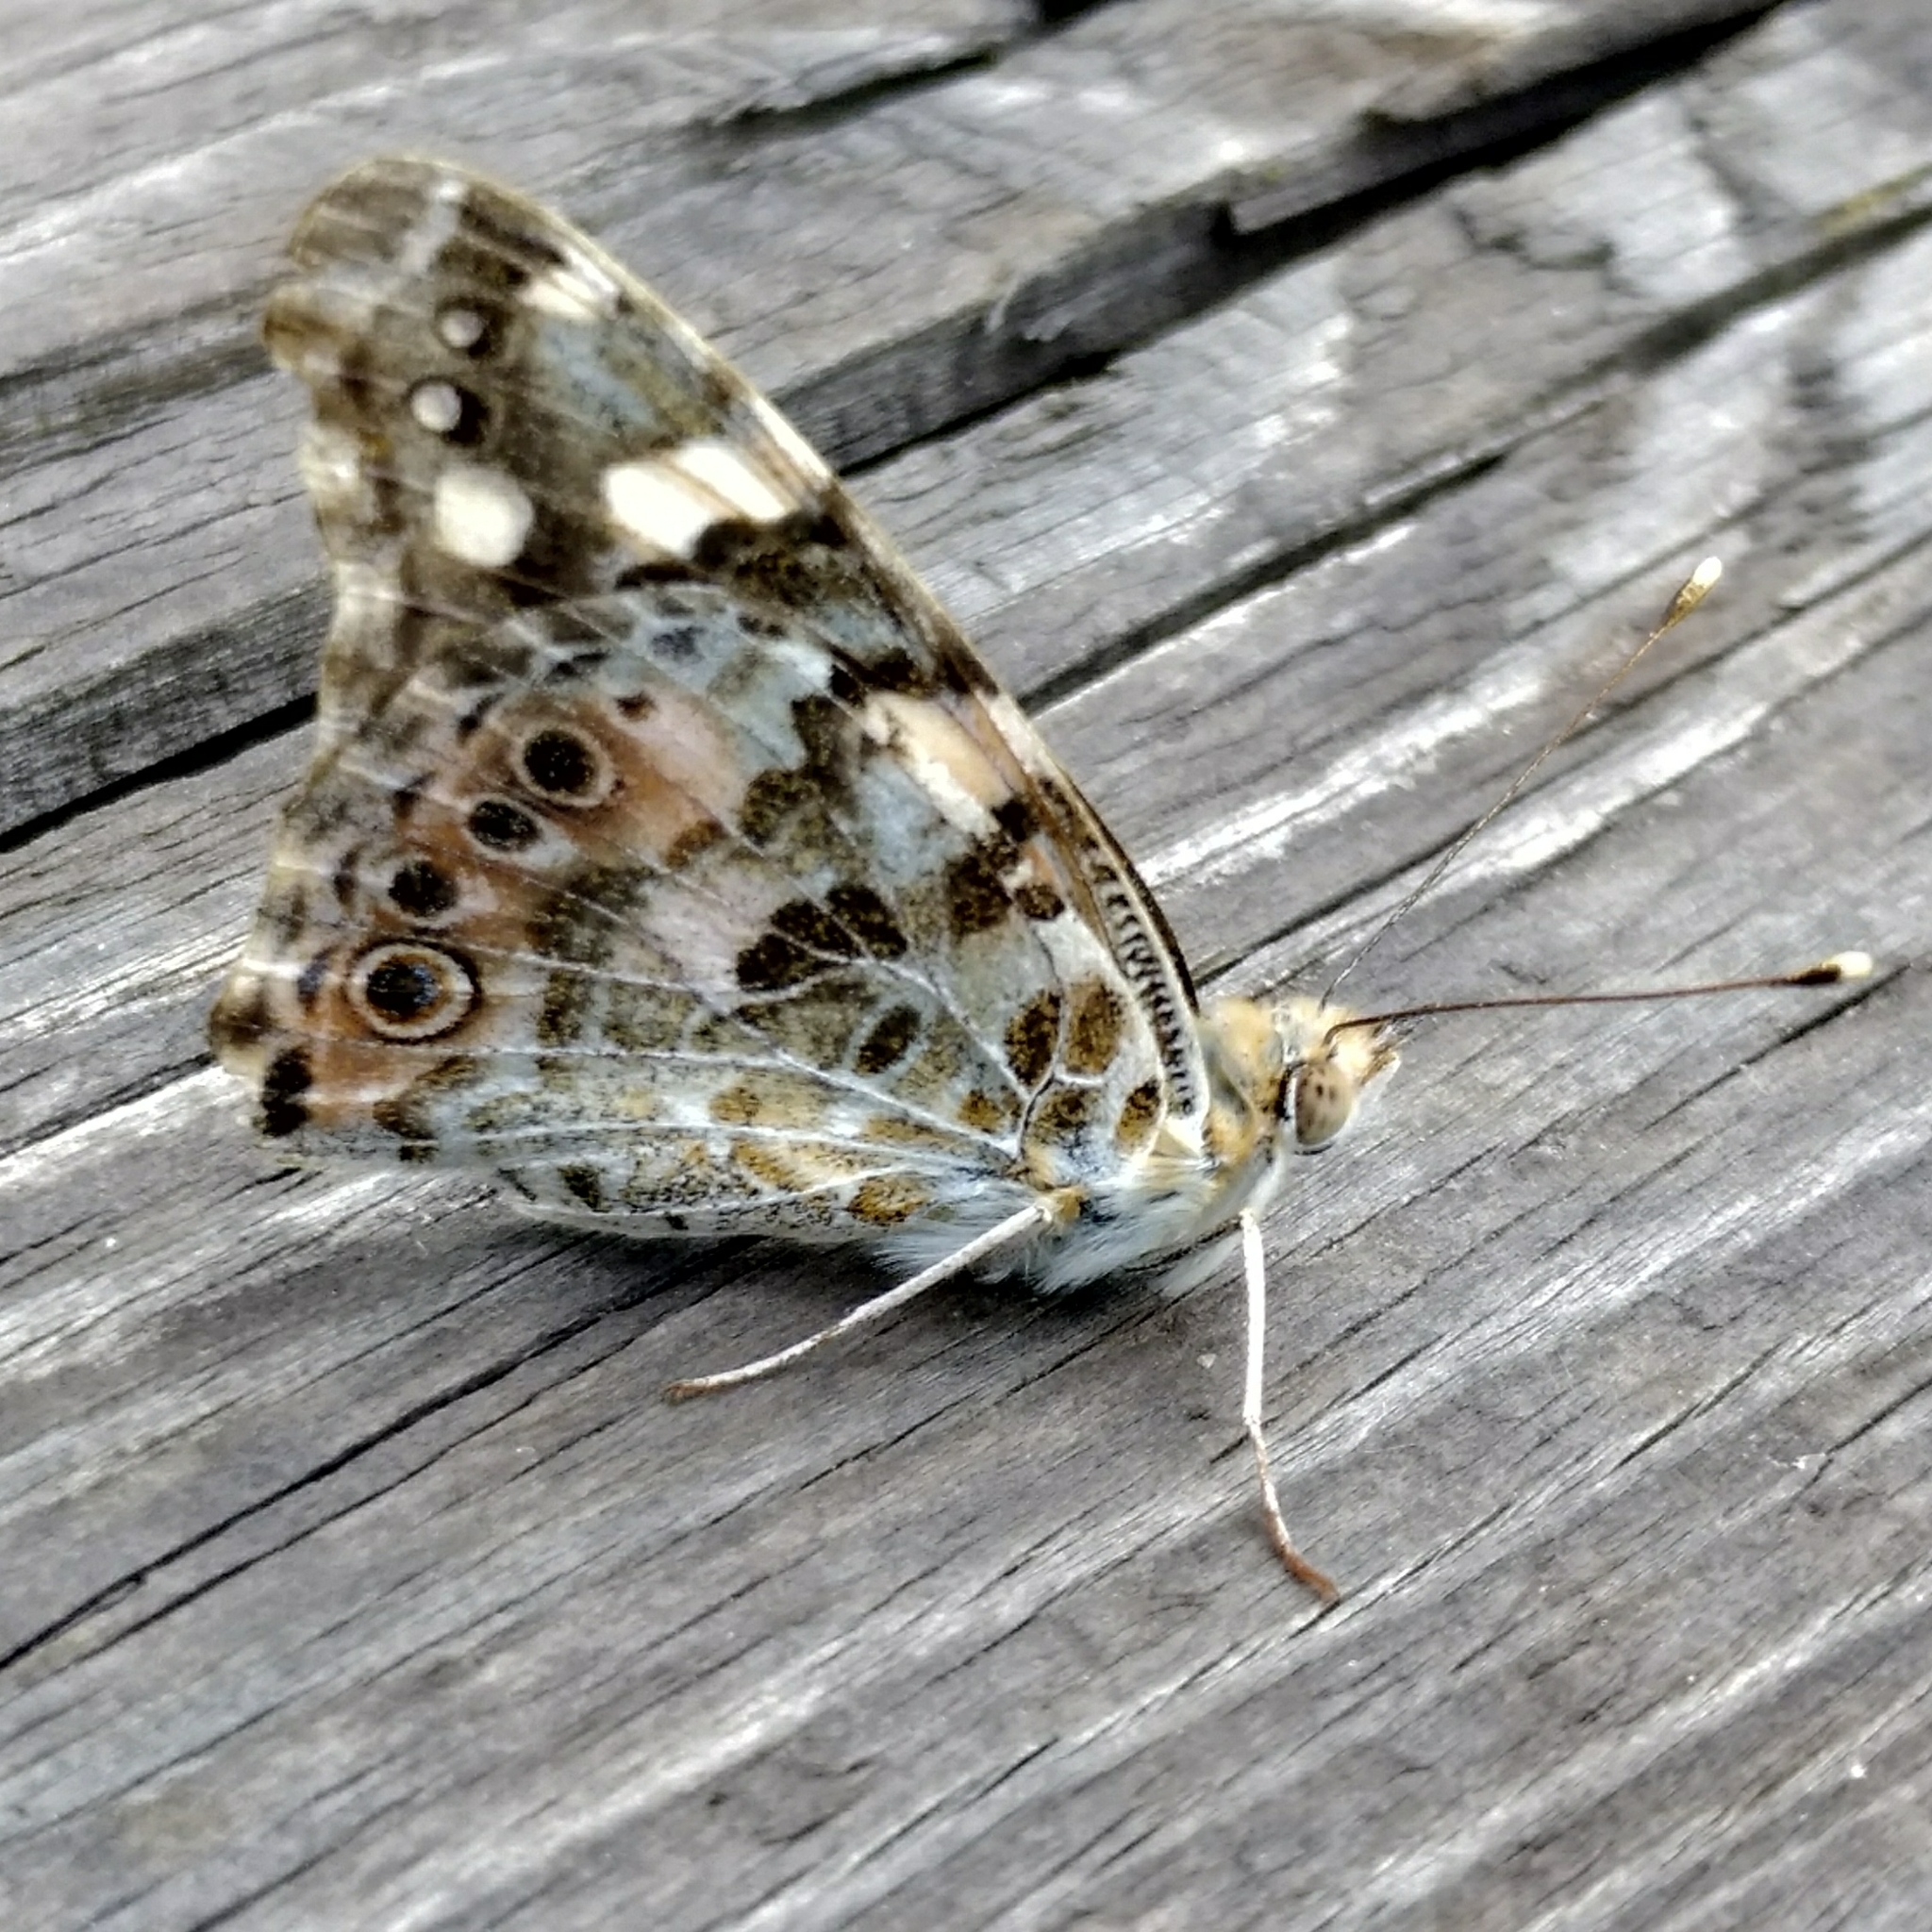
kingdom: Animalia
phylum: Arthropoda
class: Insecta
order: Lepidoptera
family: Nymphalidae
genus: Vanessa
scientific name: Vanessa cardui
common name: Painted lady
